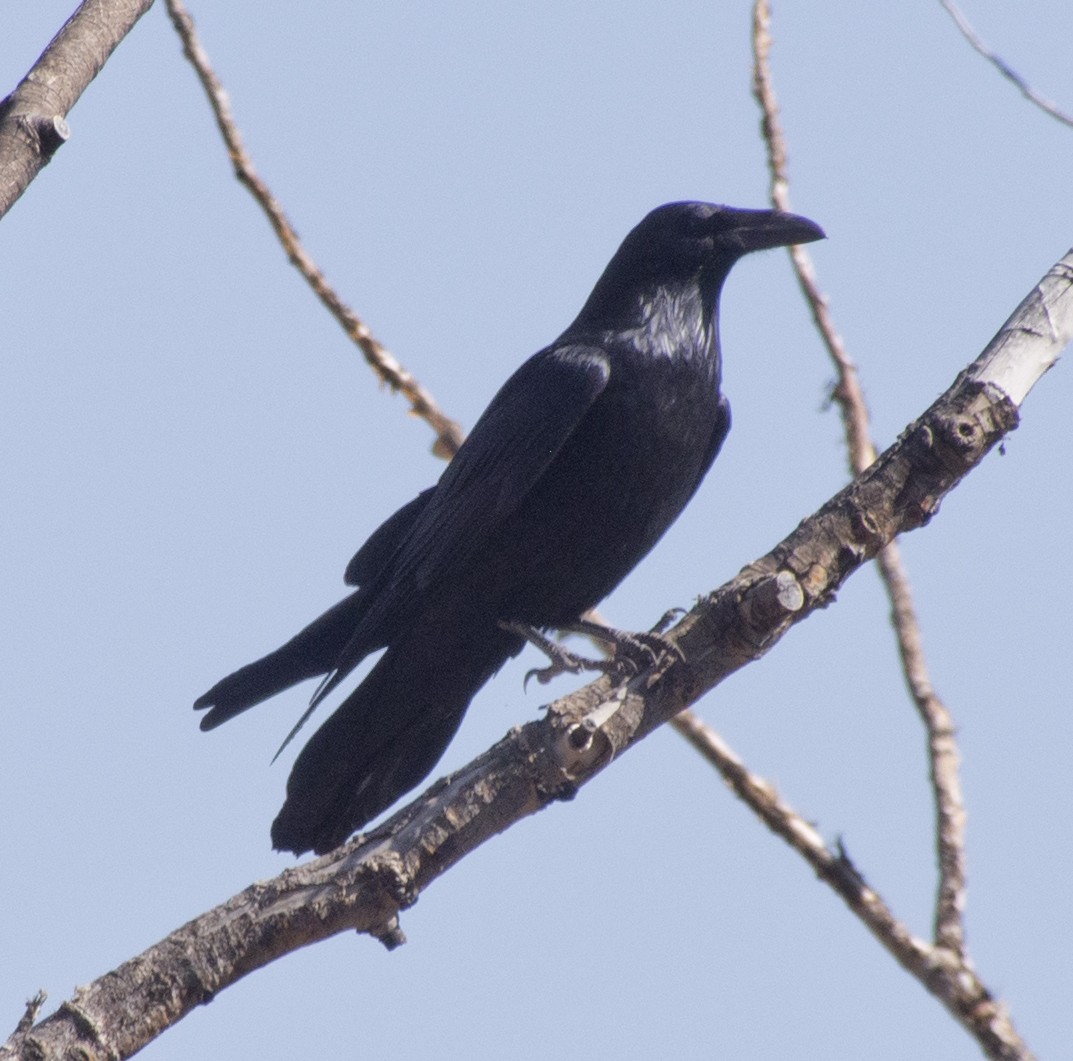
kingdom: Animalia
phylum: Chordata
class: Aves
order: Passeriformes
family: Corvidae
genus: Corvus
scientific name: Corvus corax
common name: Common raven
